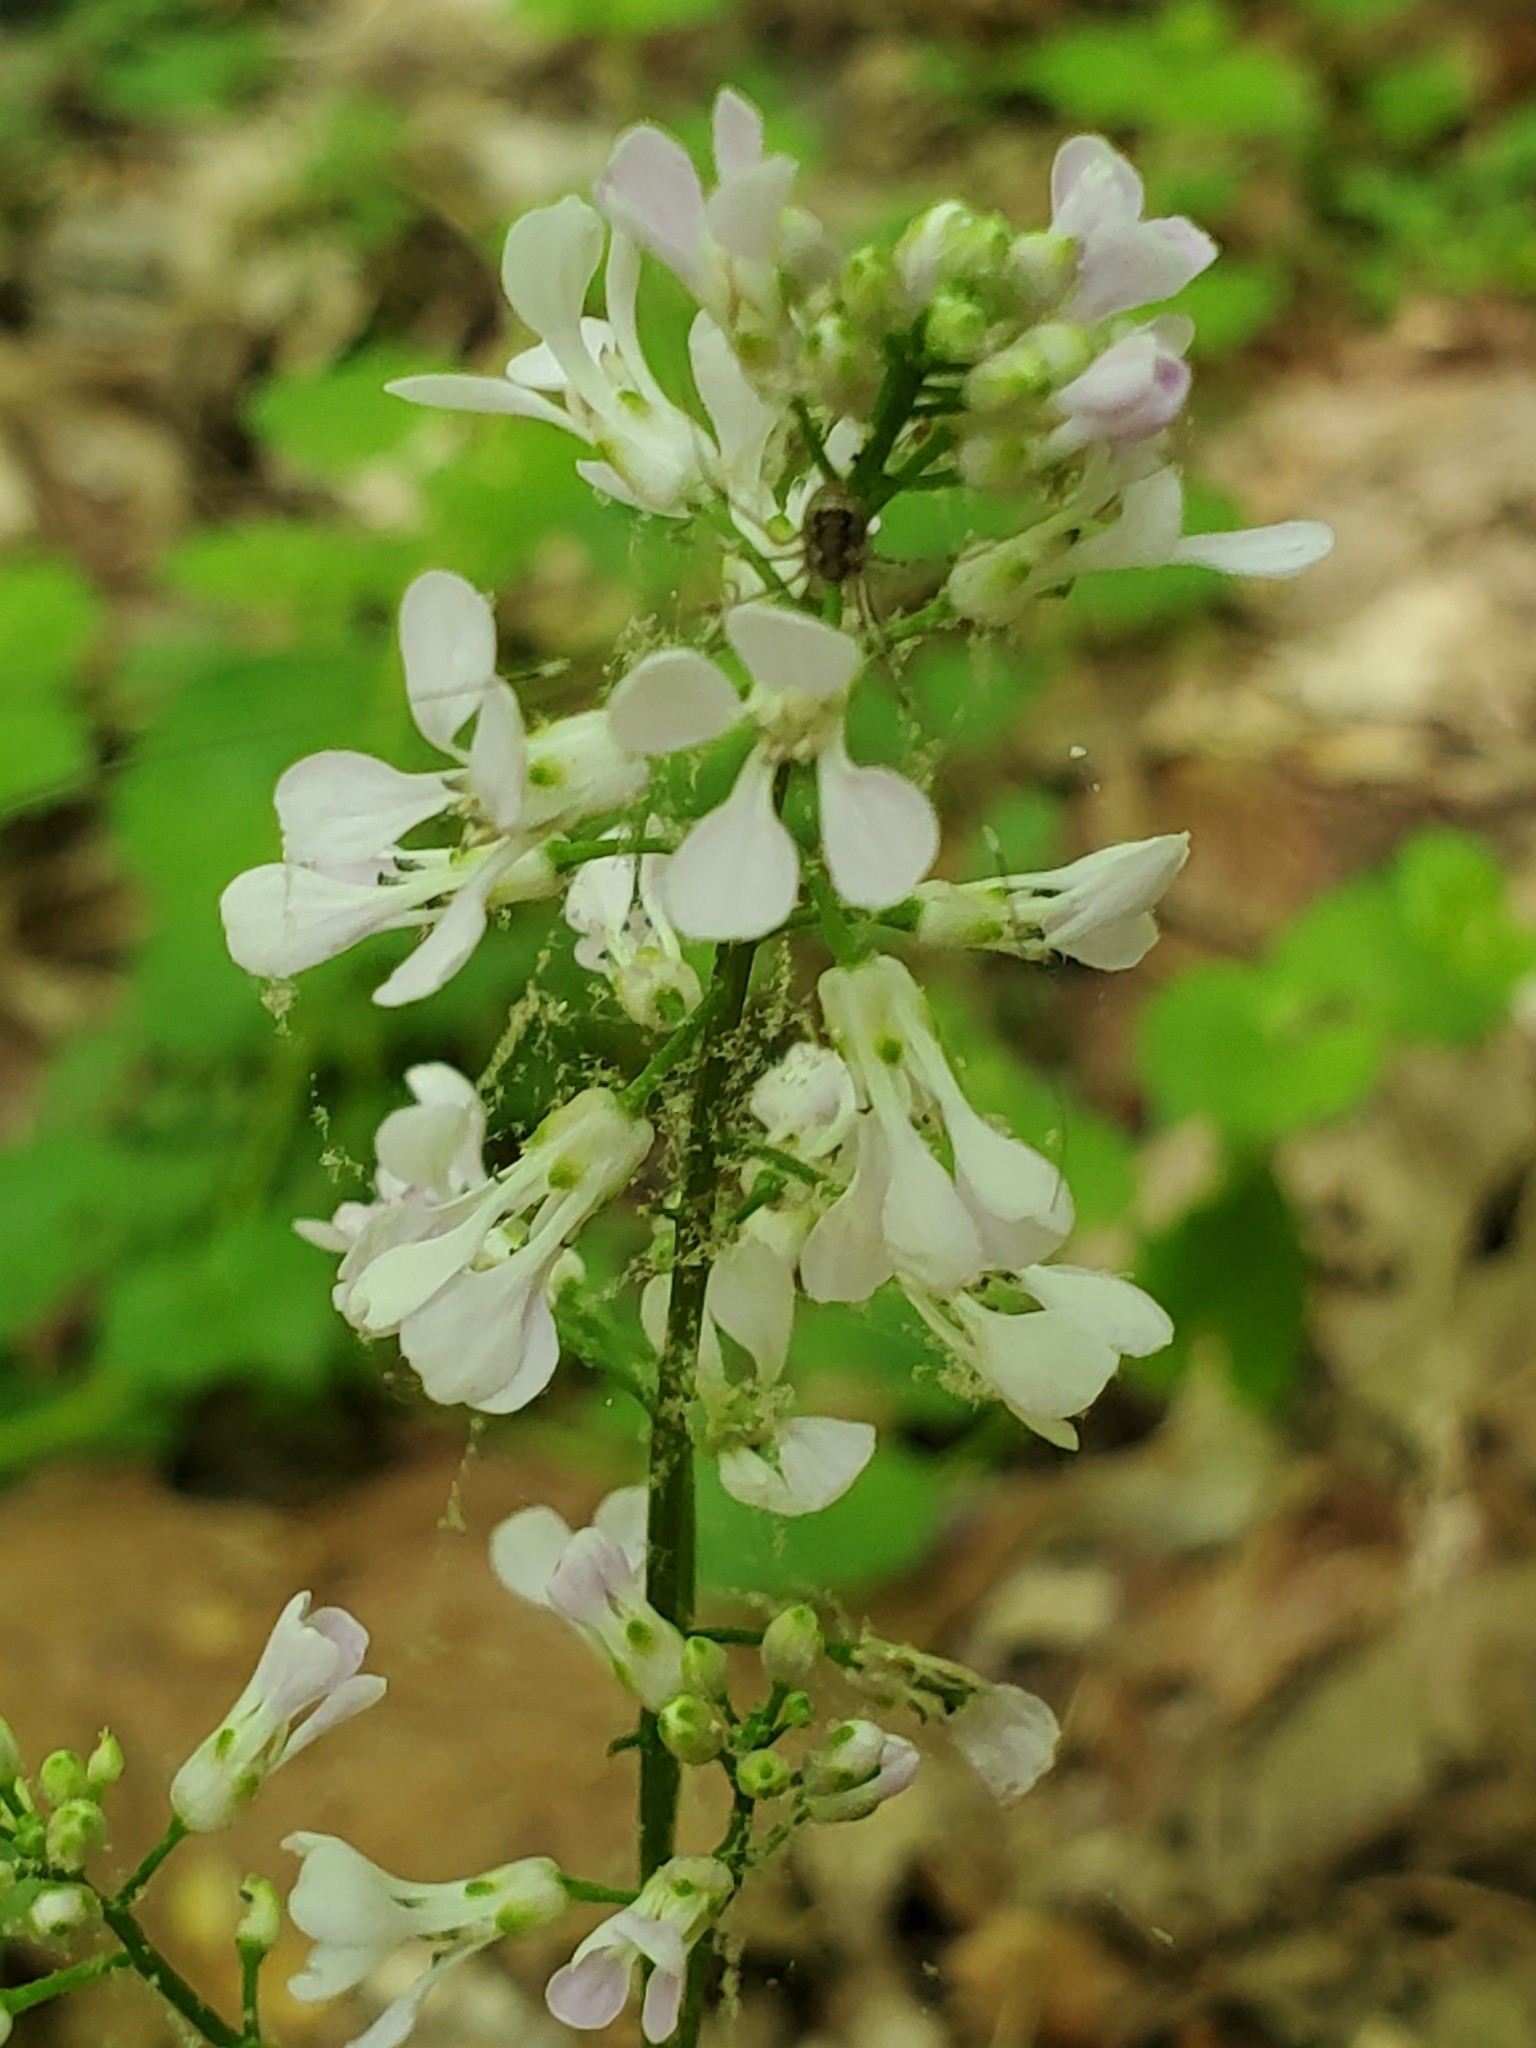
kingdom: Plantae
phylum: Tracheophyta
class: Magnoliopsida
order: Brassicales
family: Brassicaceae
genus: Iodanthus
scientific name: Iodanthus pinnatifidus
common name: Violet rocket
